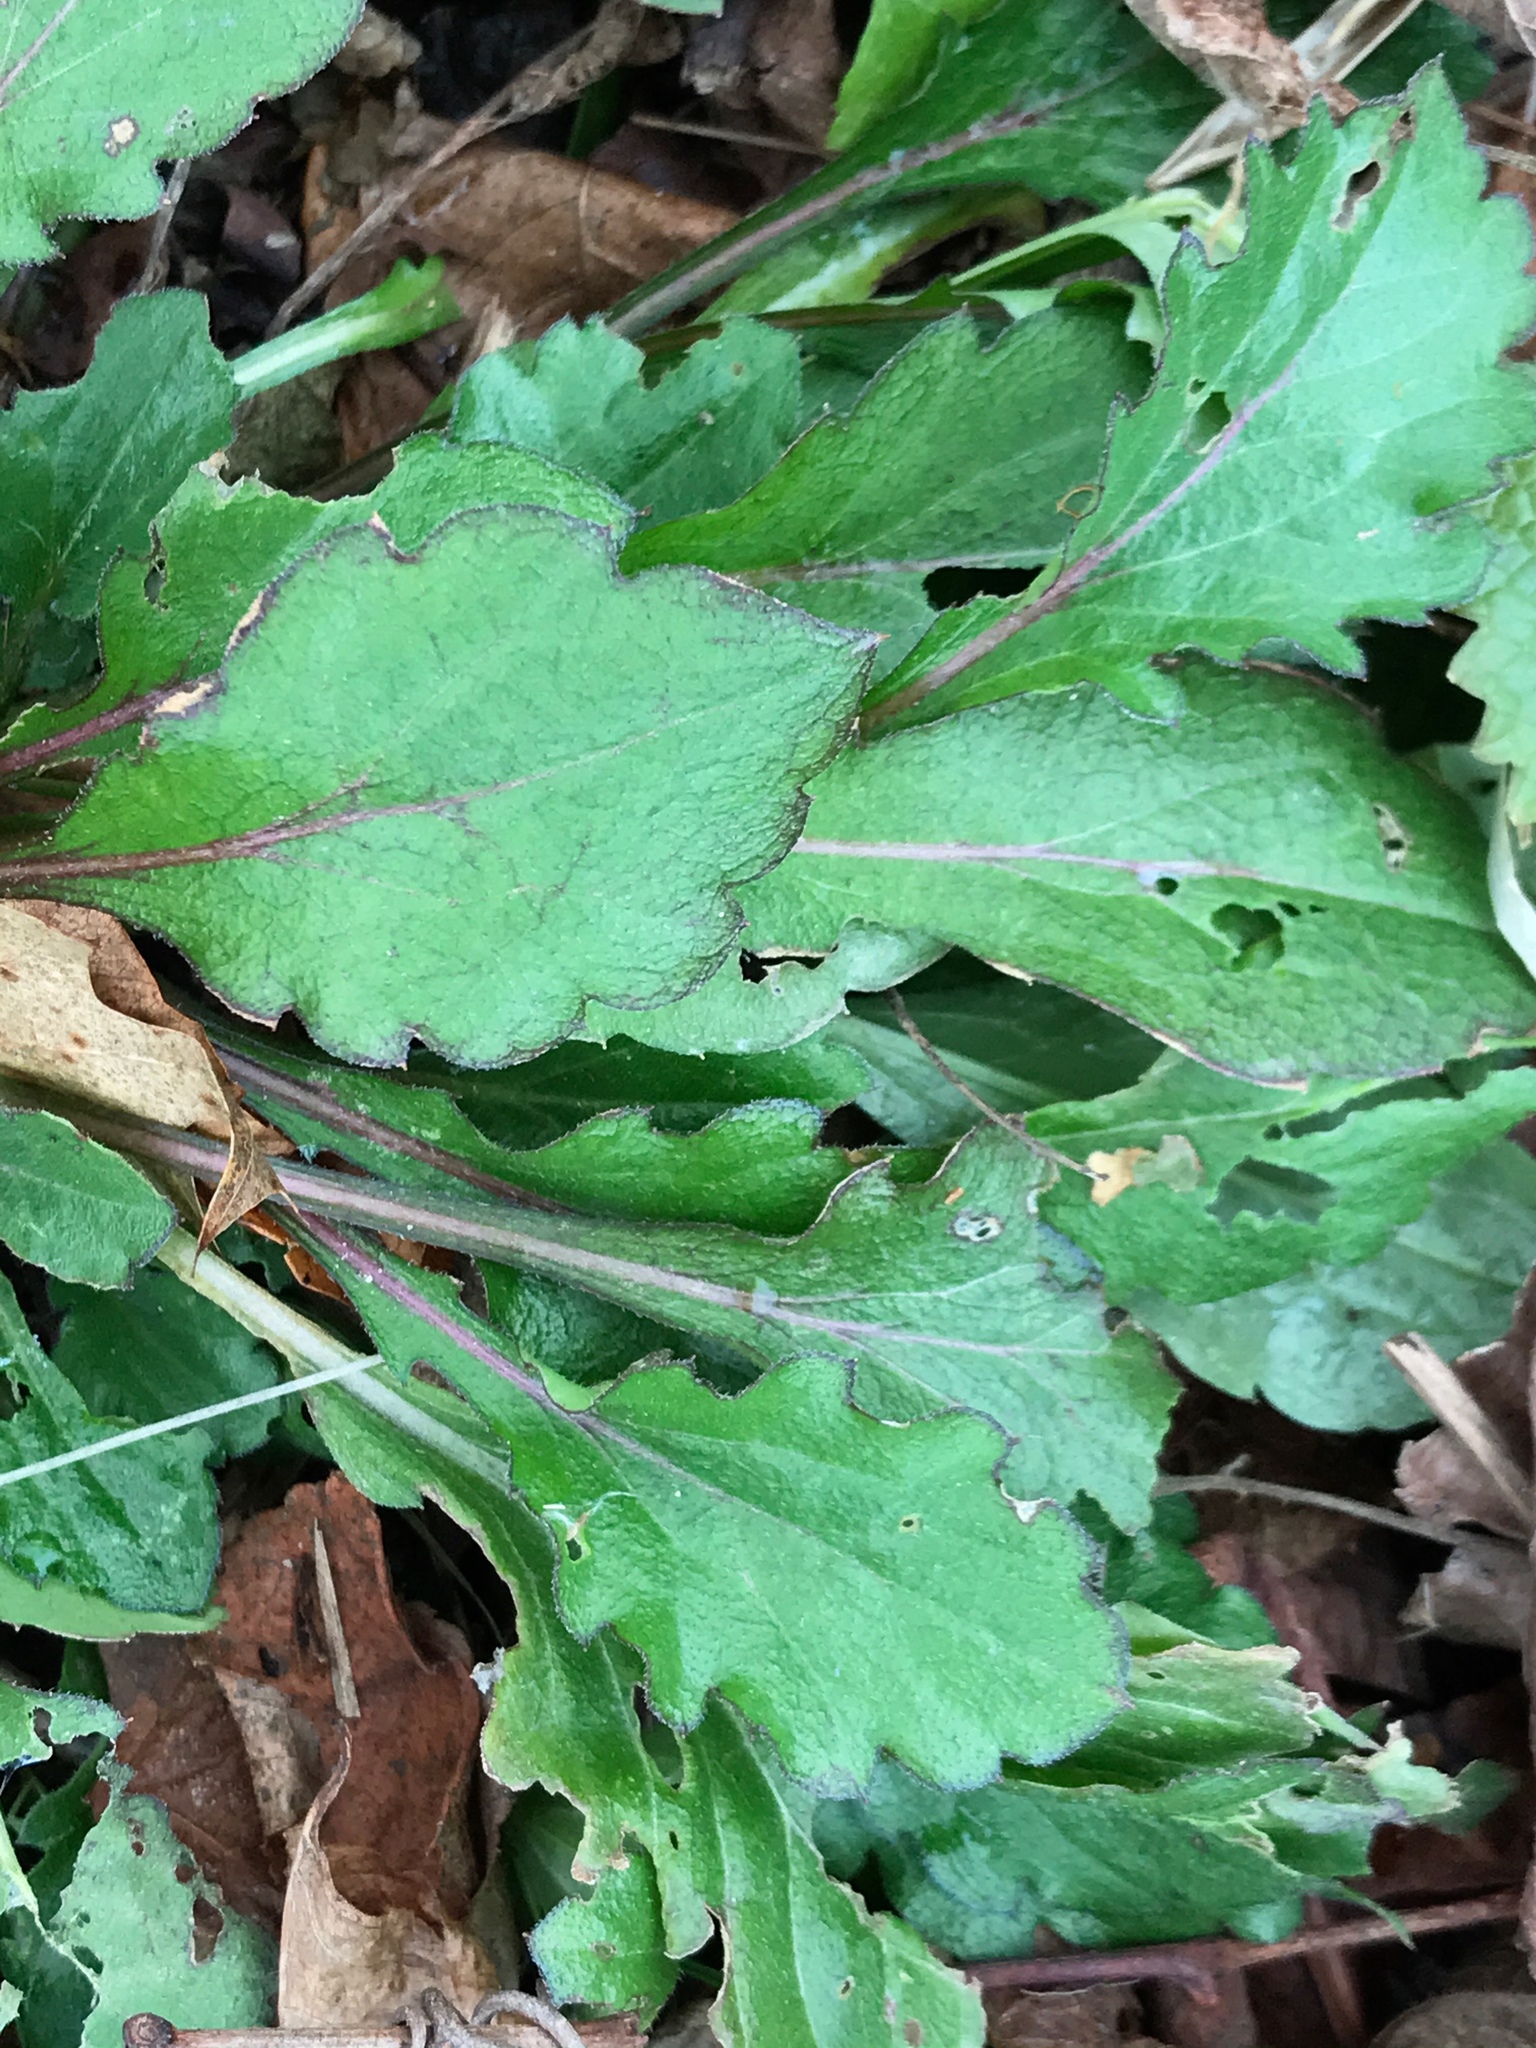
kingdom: Plantae
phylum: Tracheophyta
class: Magnoliopsida
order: Asterales
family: Asteraceae
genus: Erigeron
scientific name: Erigeron canadensis
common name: Canadian fleabane
